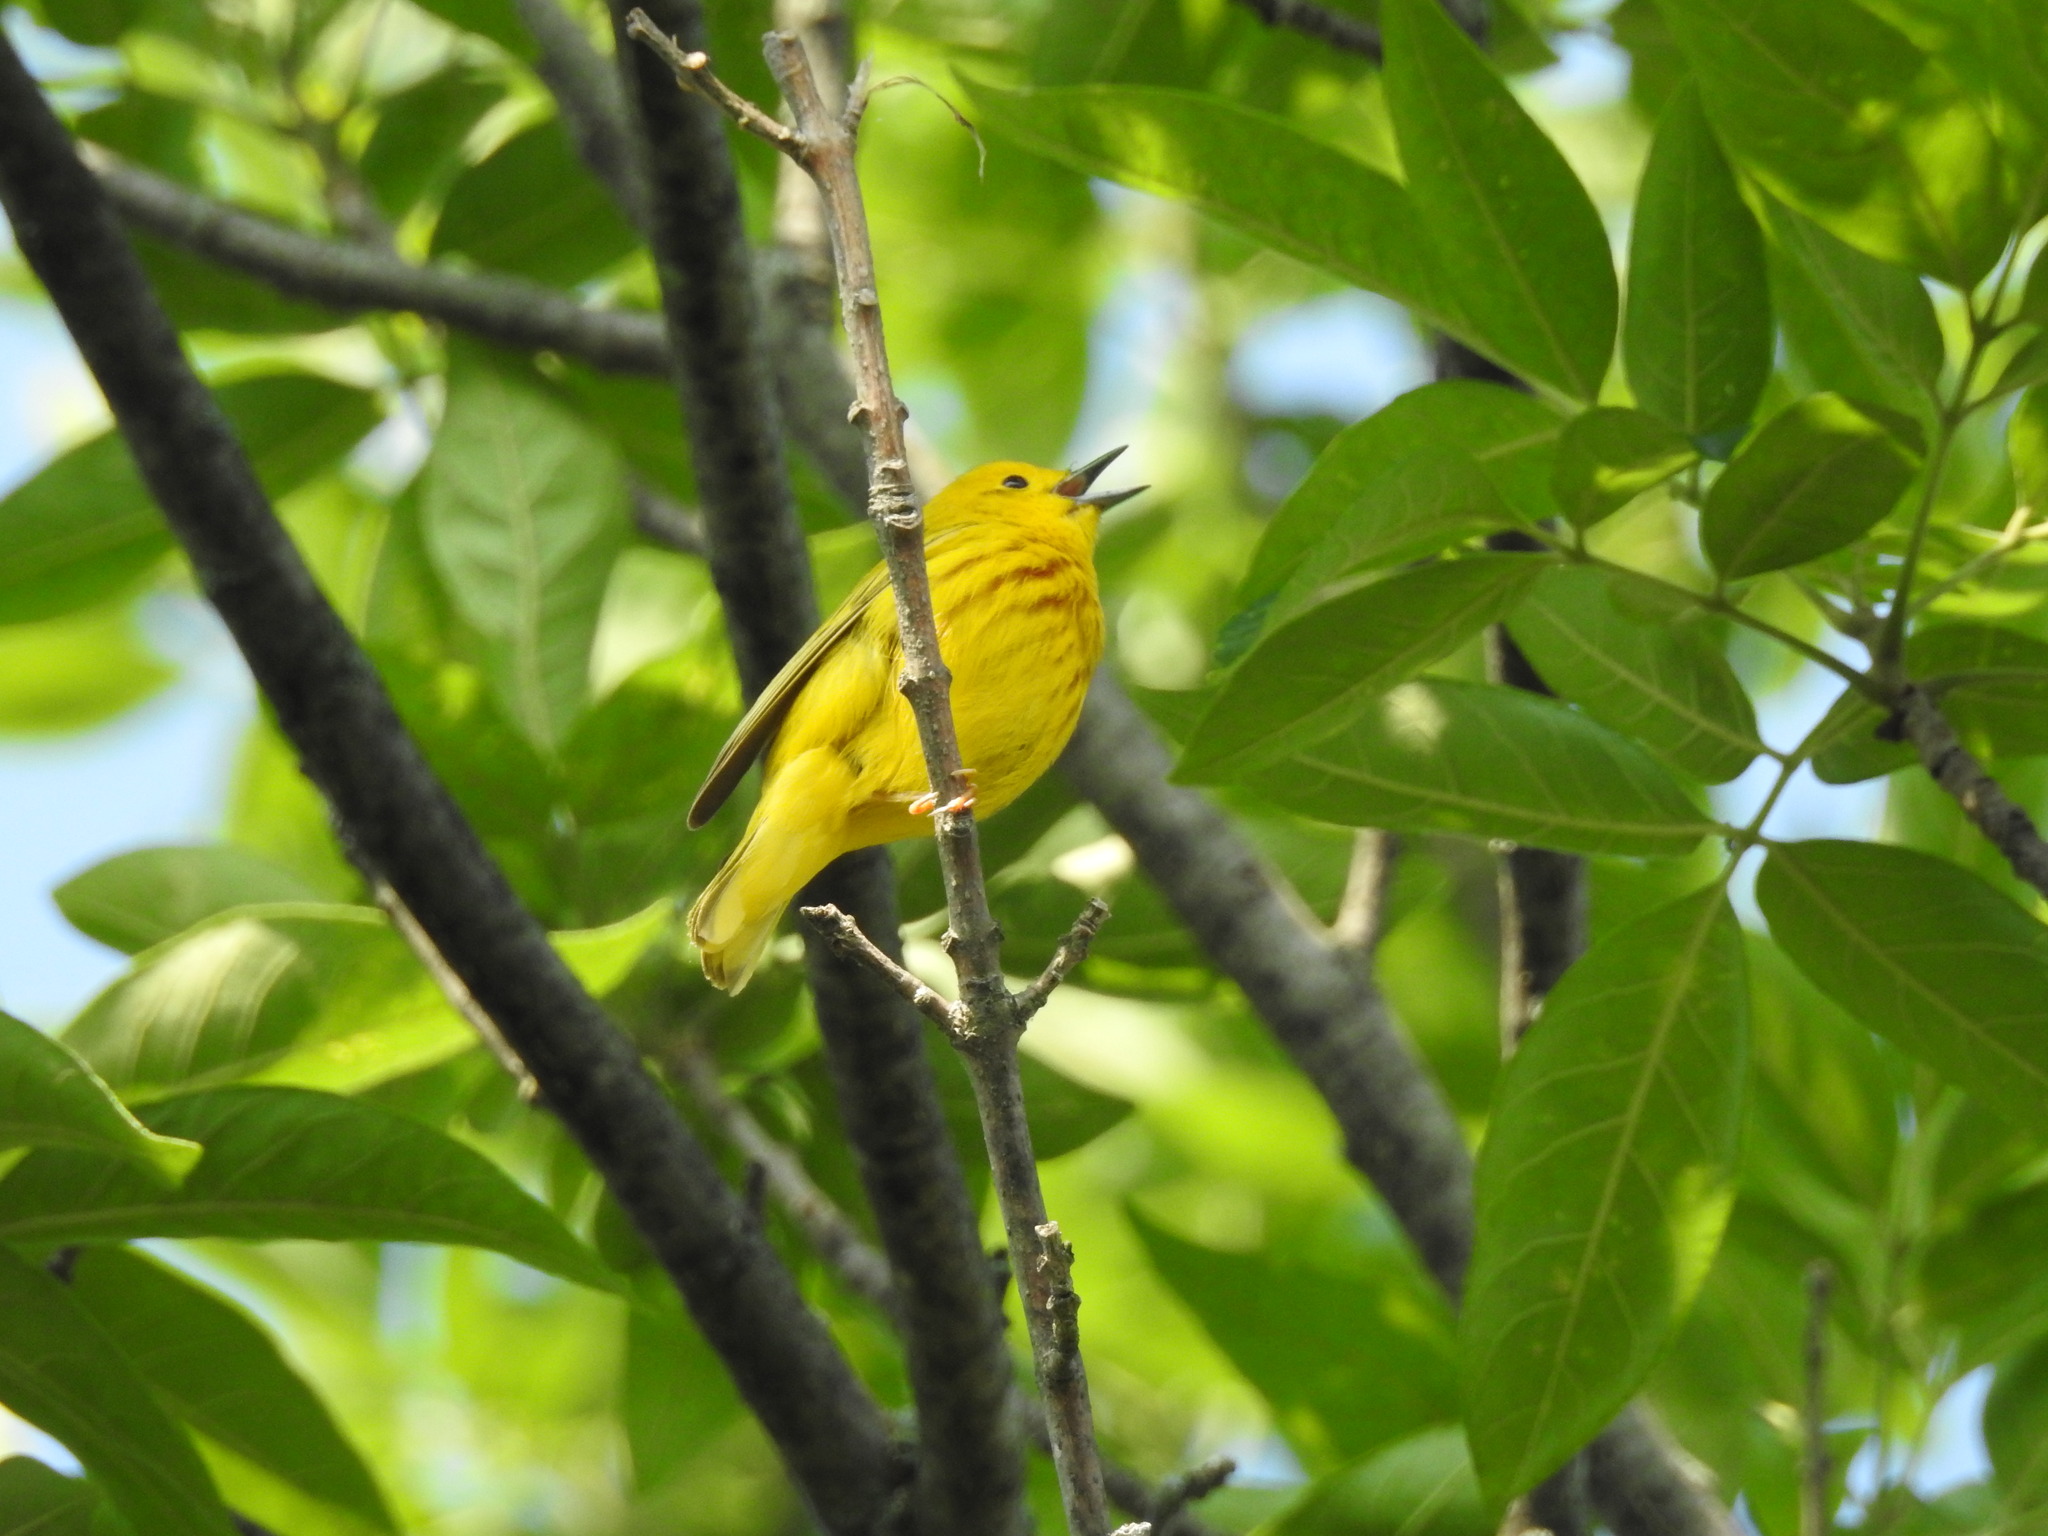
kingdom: Animalia
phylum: Chordata
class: Aves
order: Passeriformes
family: Parulidae
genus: Setophaga
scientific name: Setophaga petechia
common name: Yellow warbler
